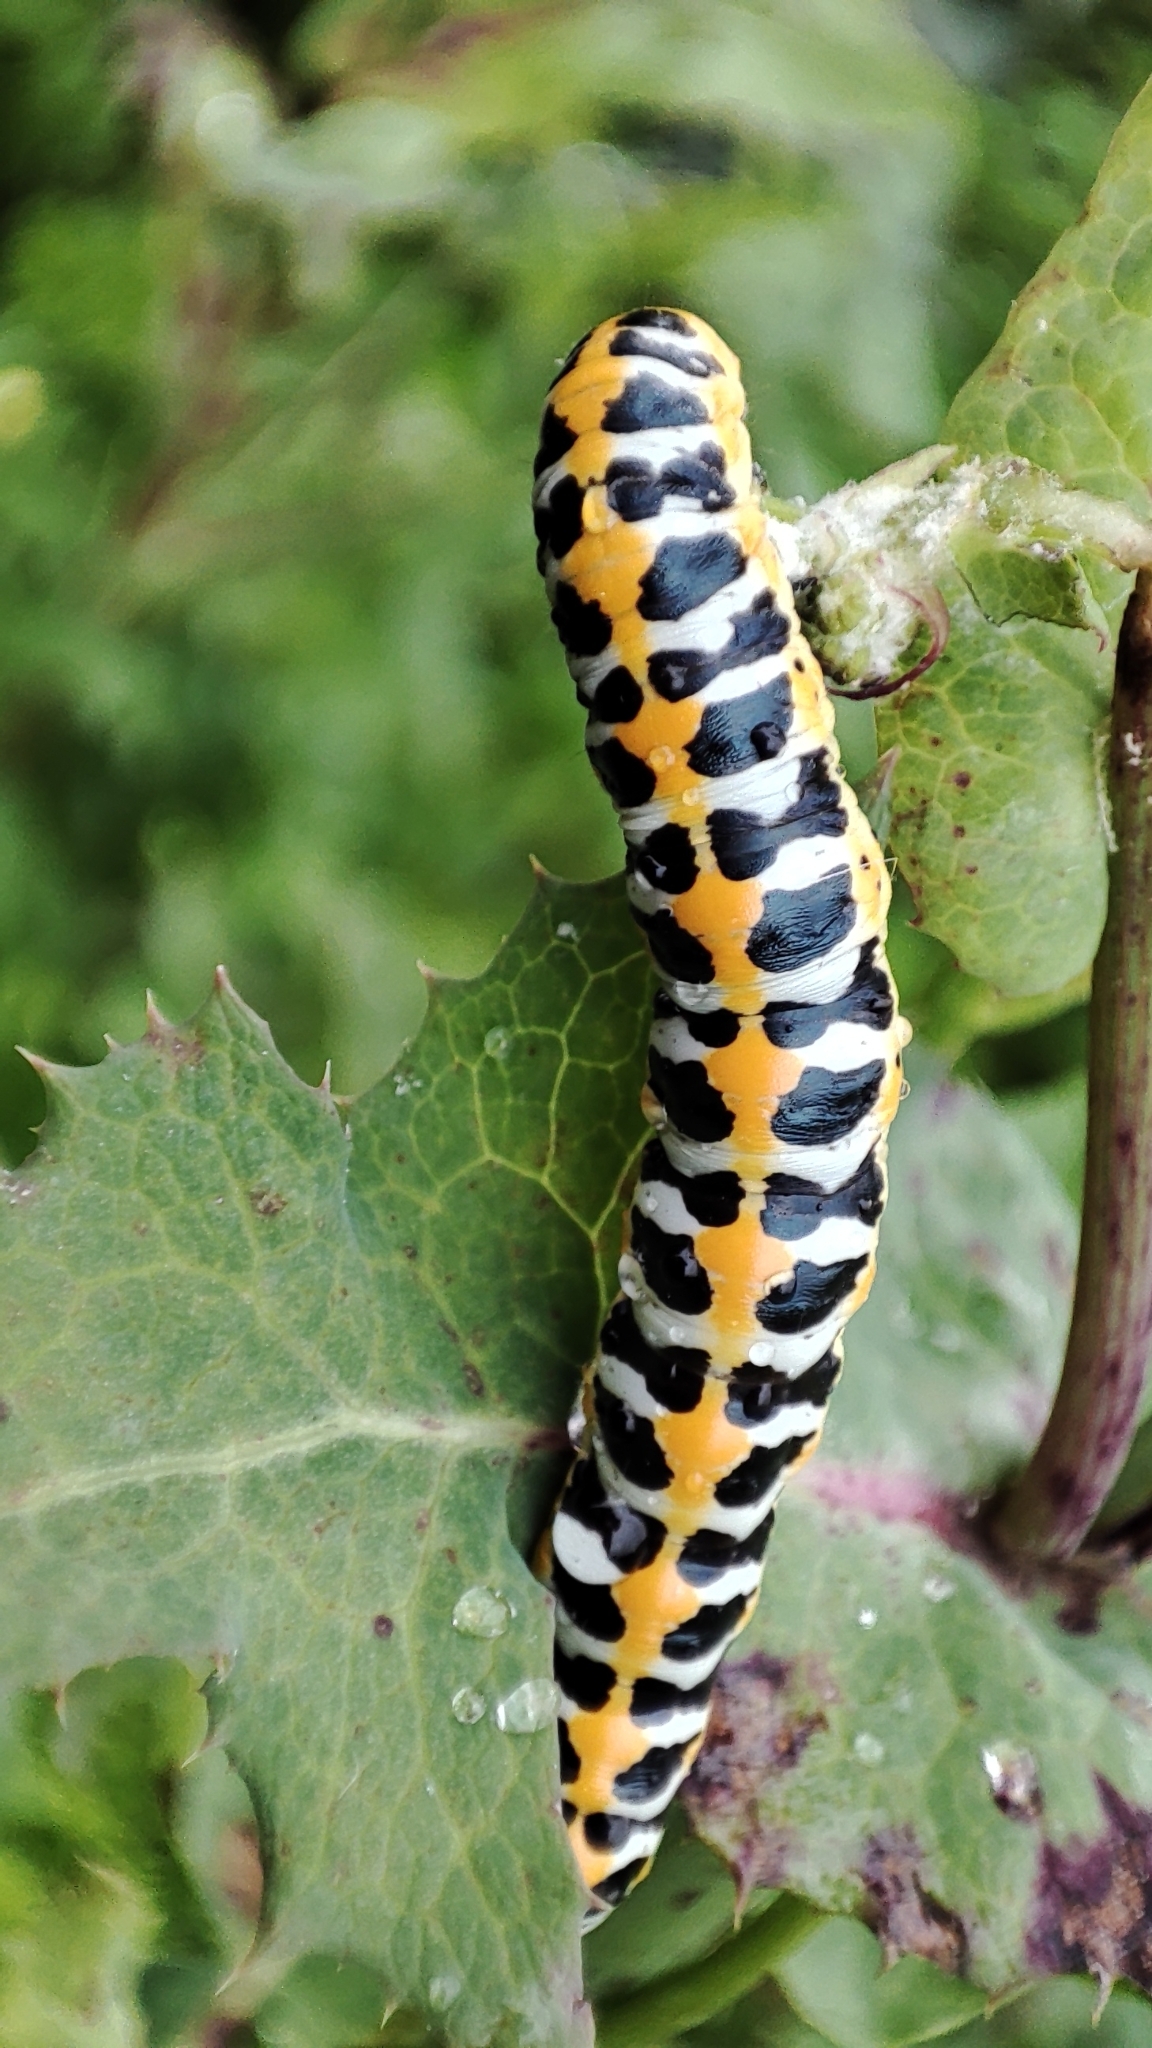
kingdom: Animalia
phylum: Arthropoda
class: Insecta
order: Lepidoptera
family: Noctuidae
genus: Cucullia
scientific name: Cucullia pustulata
